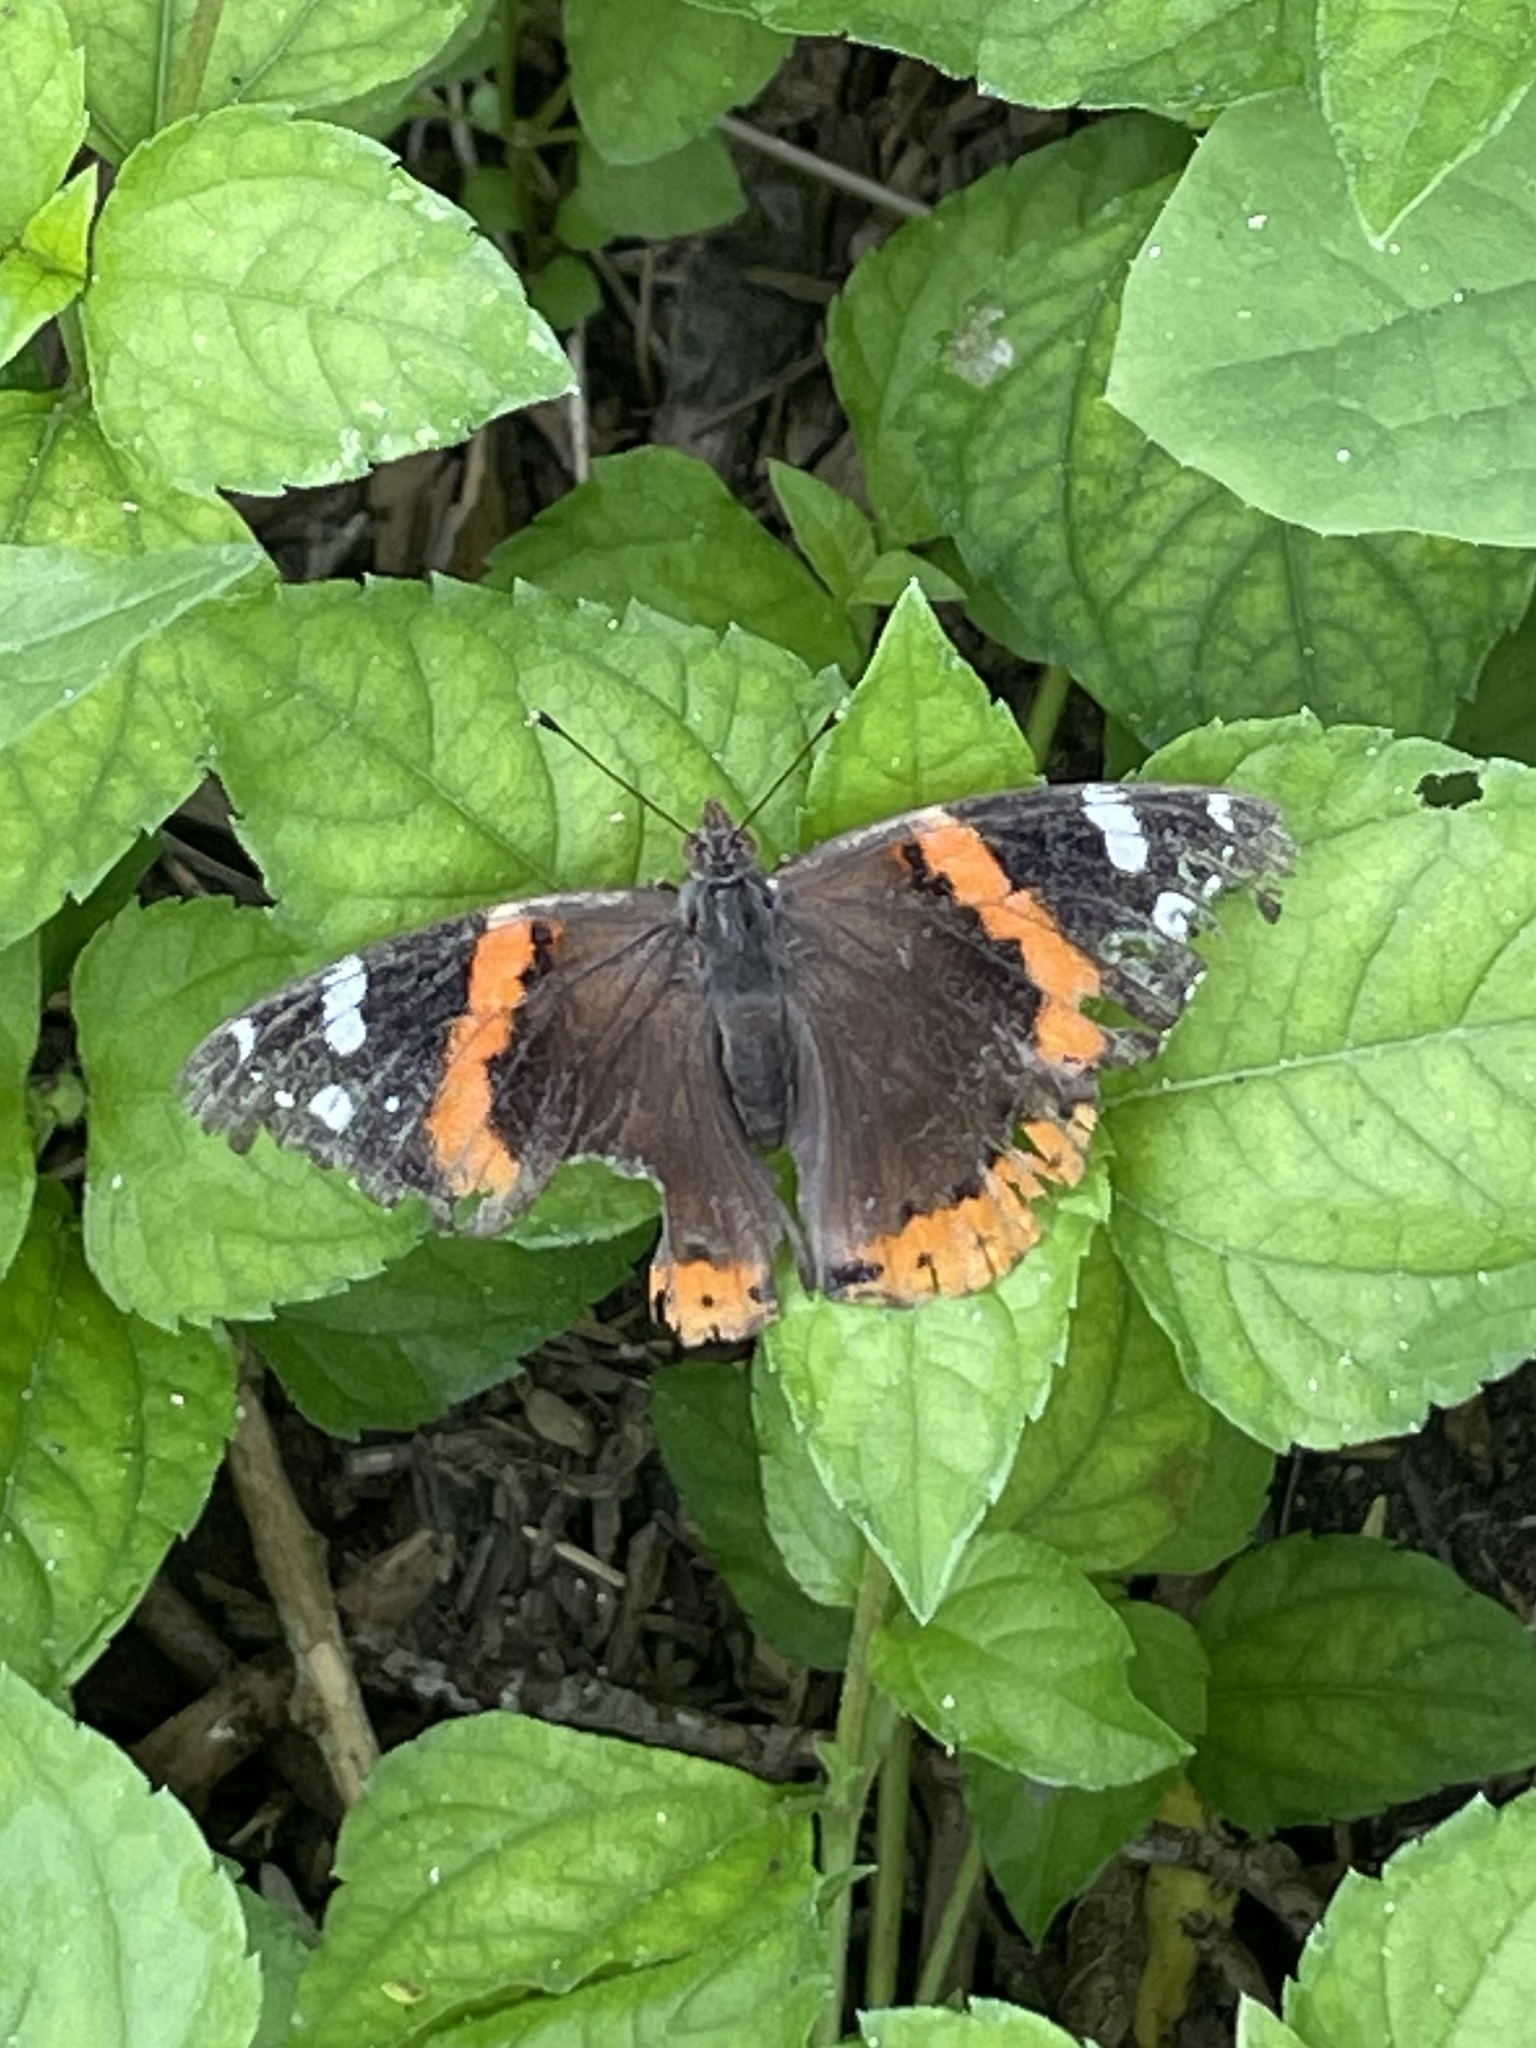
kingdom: Animalia
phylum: Arthropoda
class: Insecta
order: Lepidoptera
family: Nymphalidae
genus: Vanessa
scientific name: Vanessa atalanta
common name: Red admiral
